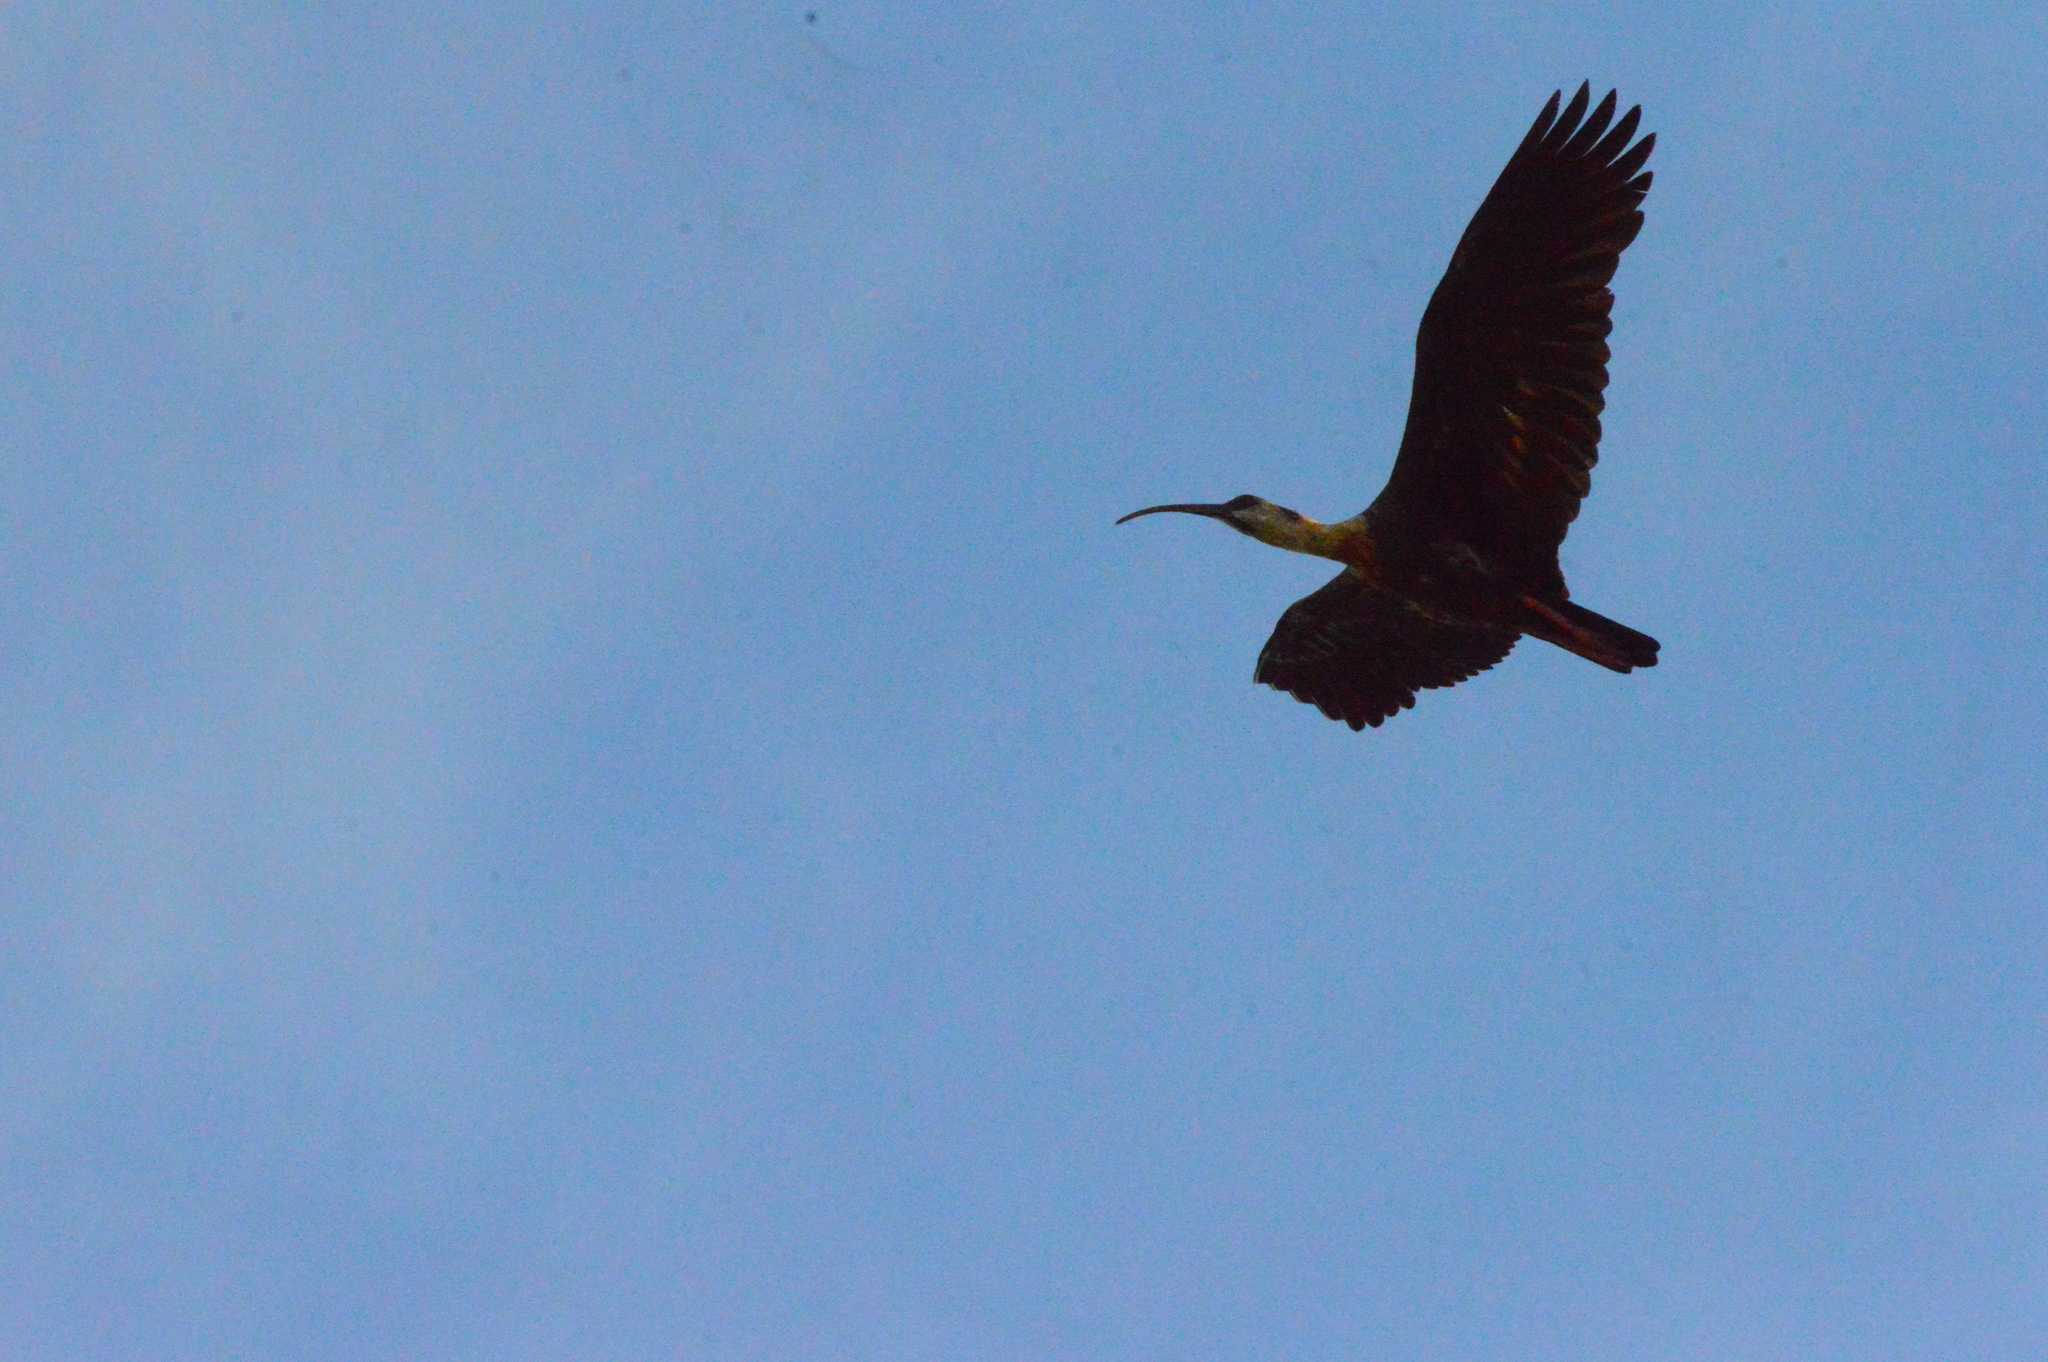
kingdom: Animalia
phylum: Chordata
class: Aves
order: Pelecaniformes
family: Threskiornithidae
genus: Theristicus
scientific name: Theristicus caudatus
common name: Buff-necked ibis
